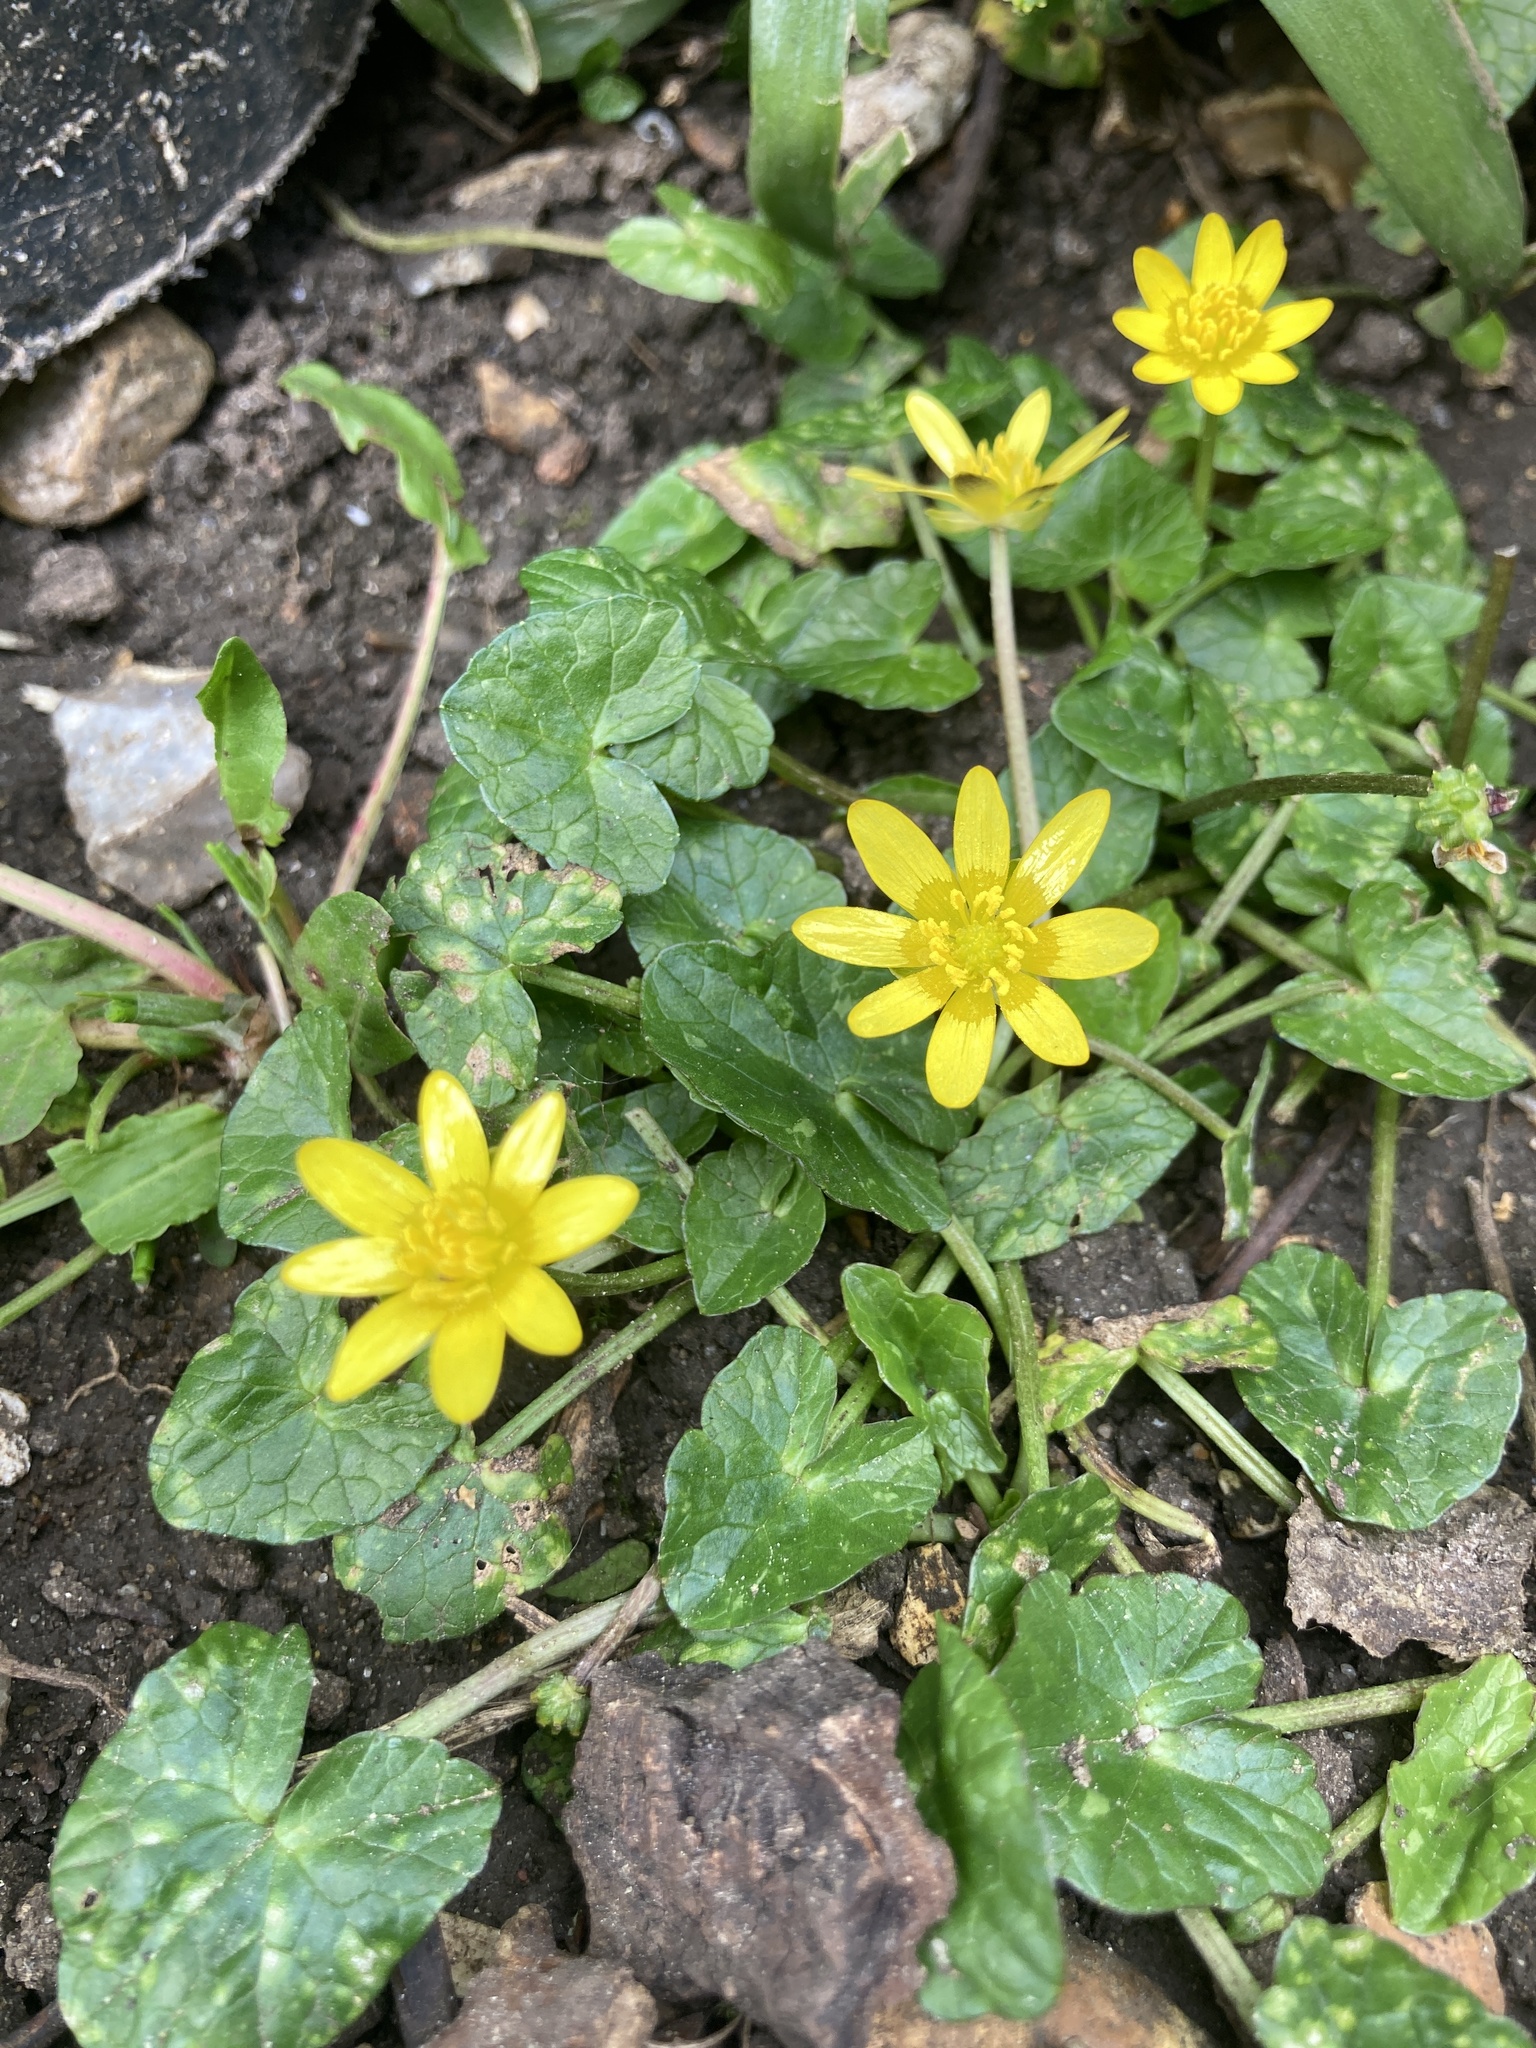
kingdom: Plantae
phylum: Tracheophyta
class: Magnoliopsida
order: Ranunculales
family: Ranunculaceae
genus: Ficaria
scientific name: Ficaria verna
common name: Lesser celandine
